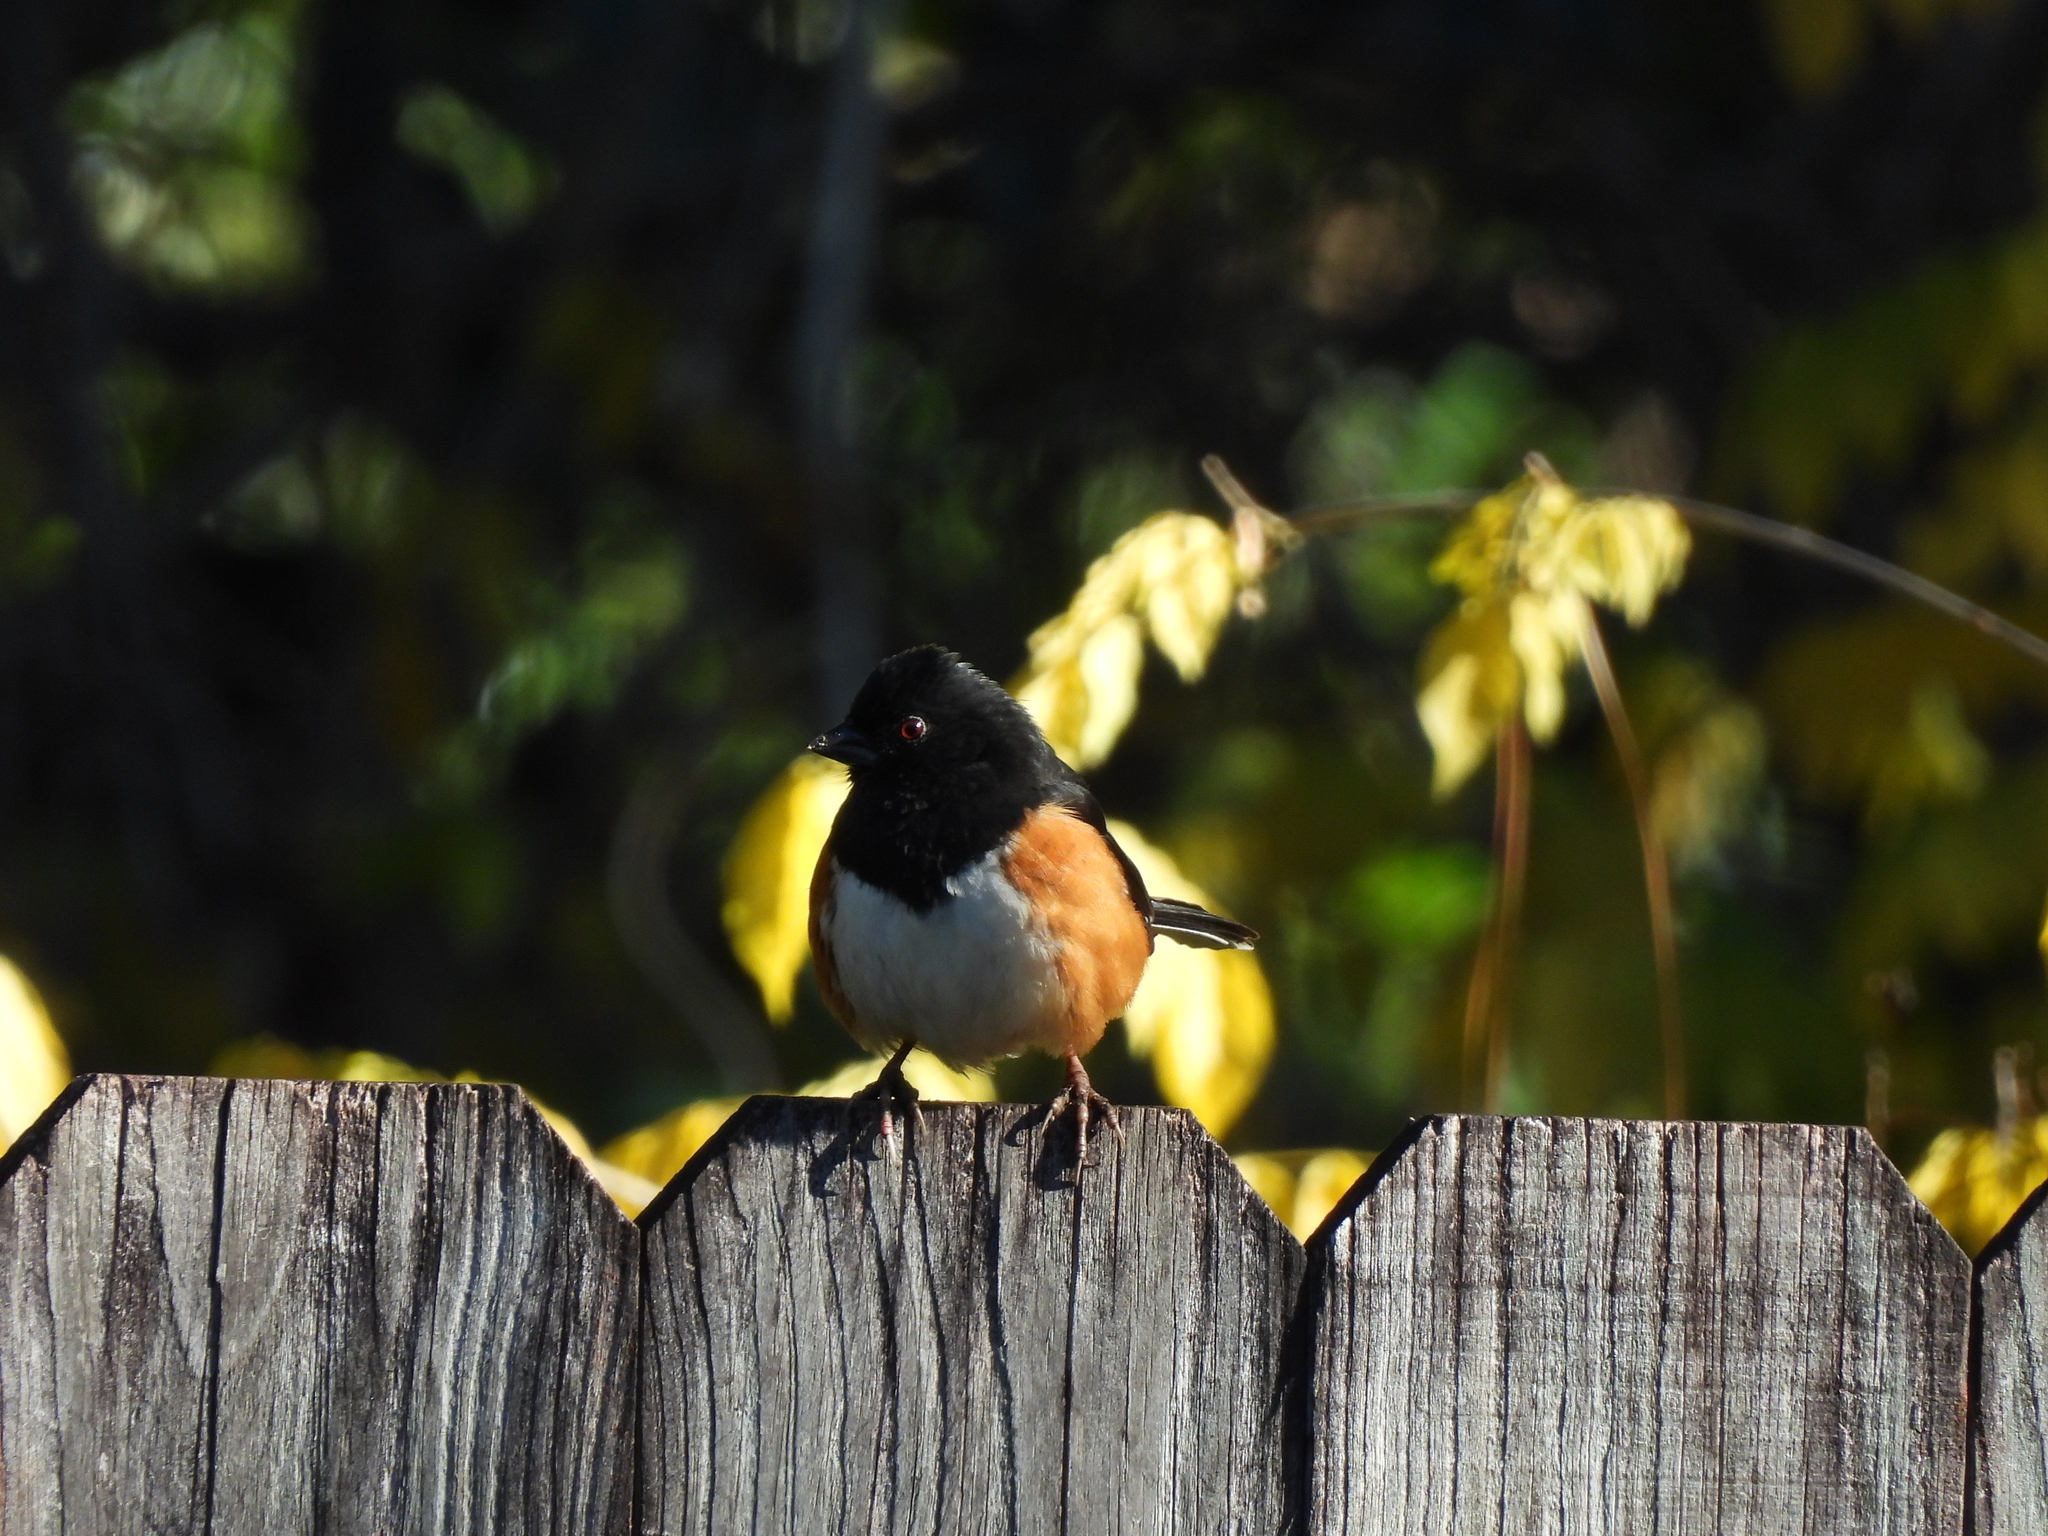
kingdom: Animalia
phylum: Chordata
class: Aves
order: Passeriformes
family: Passerellidae
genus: Pipilo
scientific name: Pipilo erythrophthalmus
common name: Eastern towhee
